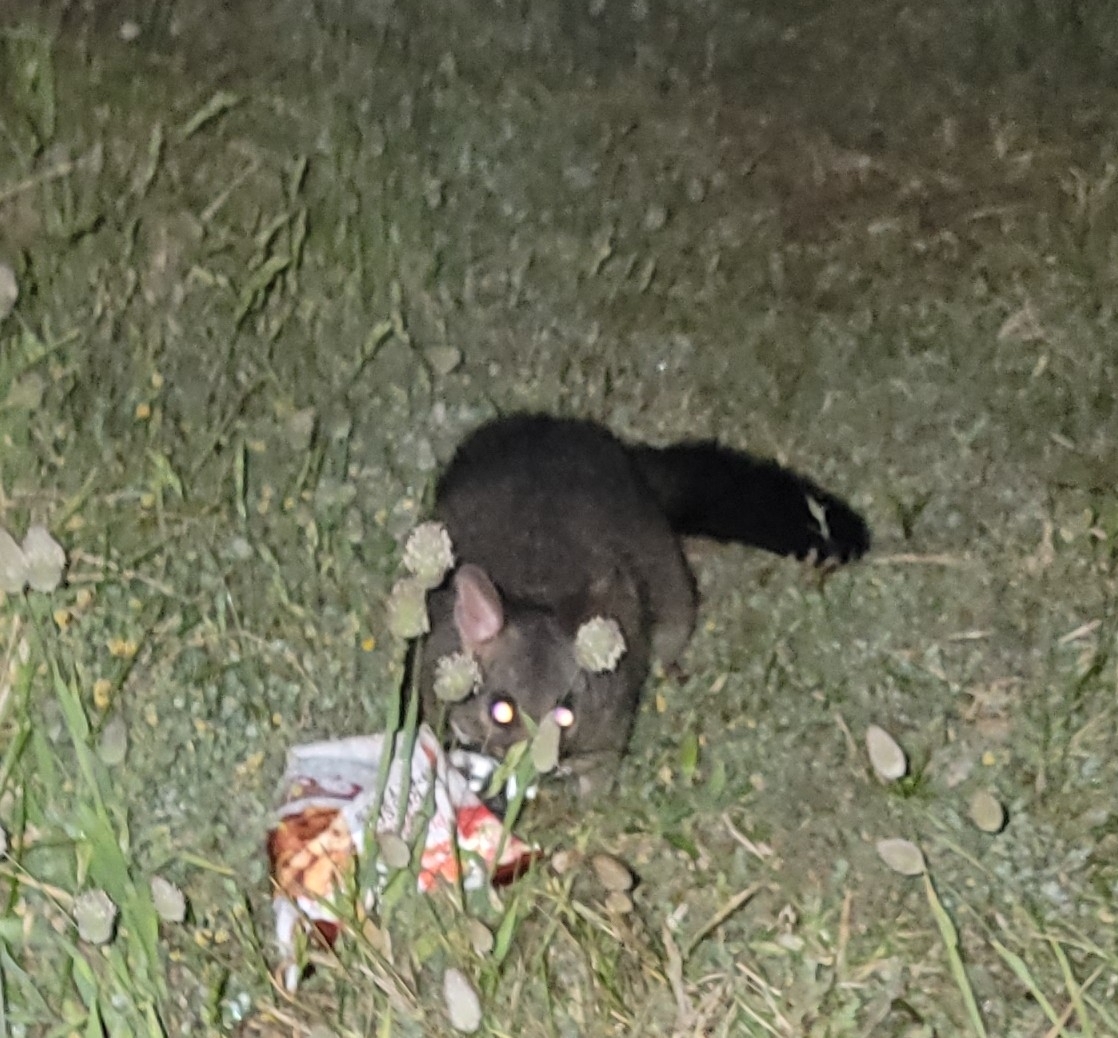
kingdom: Animalia
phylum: Chordata
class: Mammalia
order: Diprotodontia
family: Phalangeridae
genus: Trichosurus
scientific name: Trichosurus vulpecula
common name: Common brushtail
